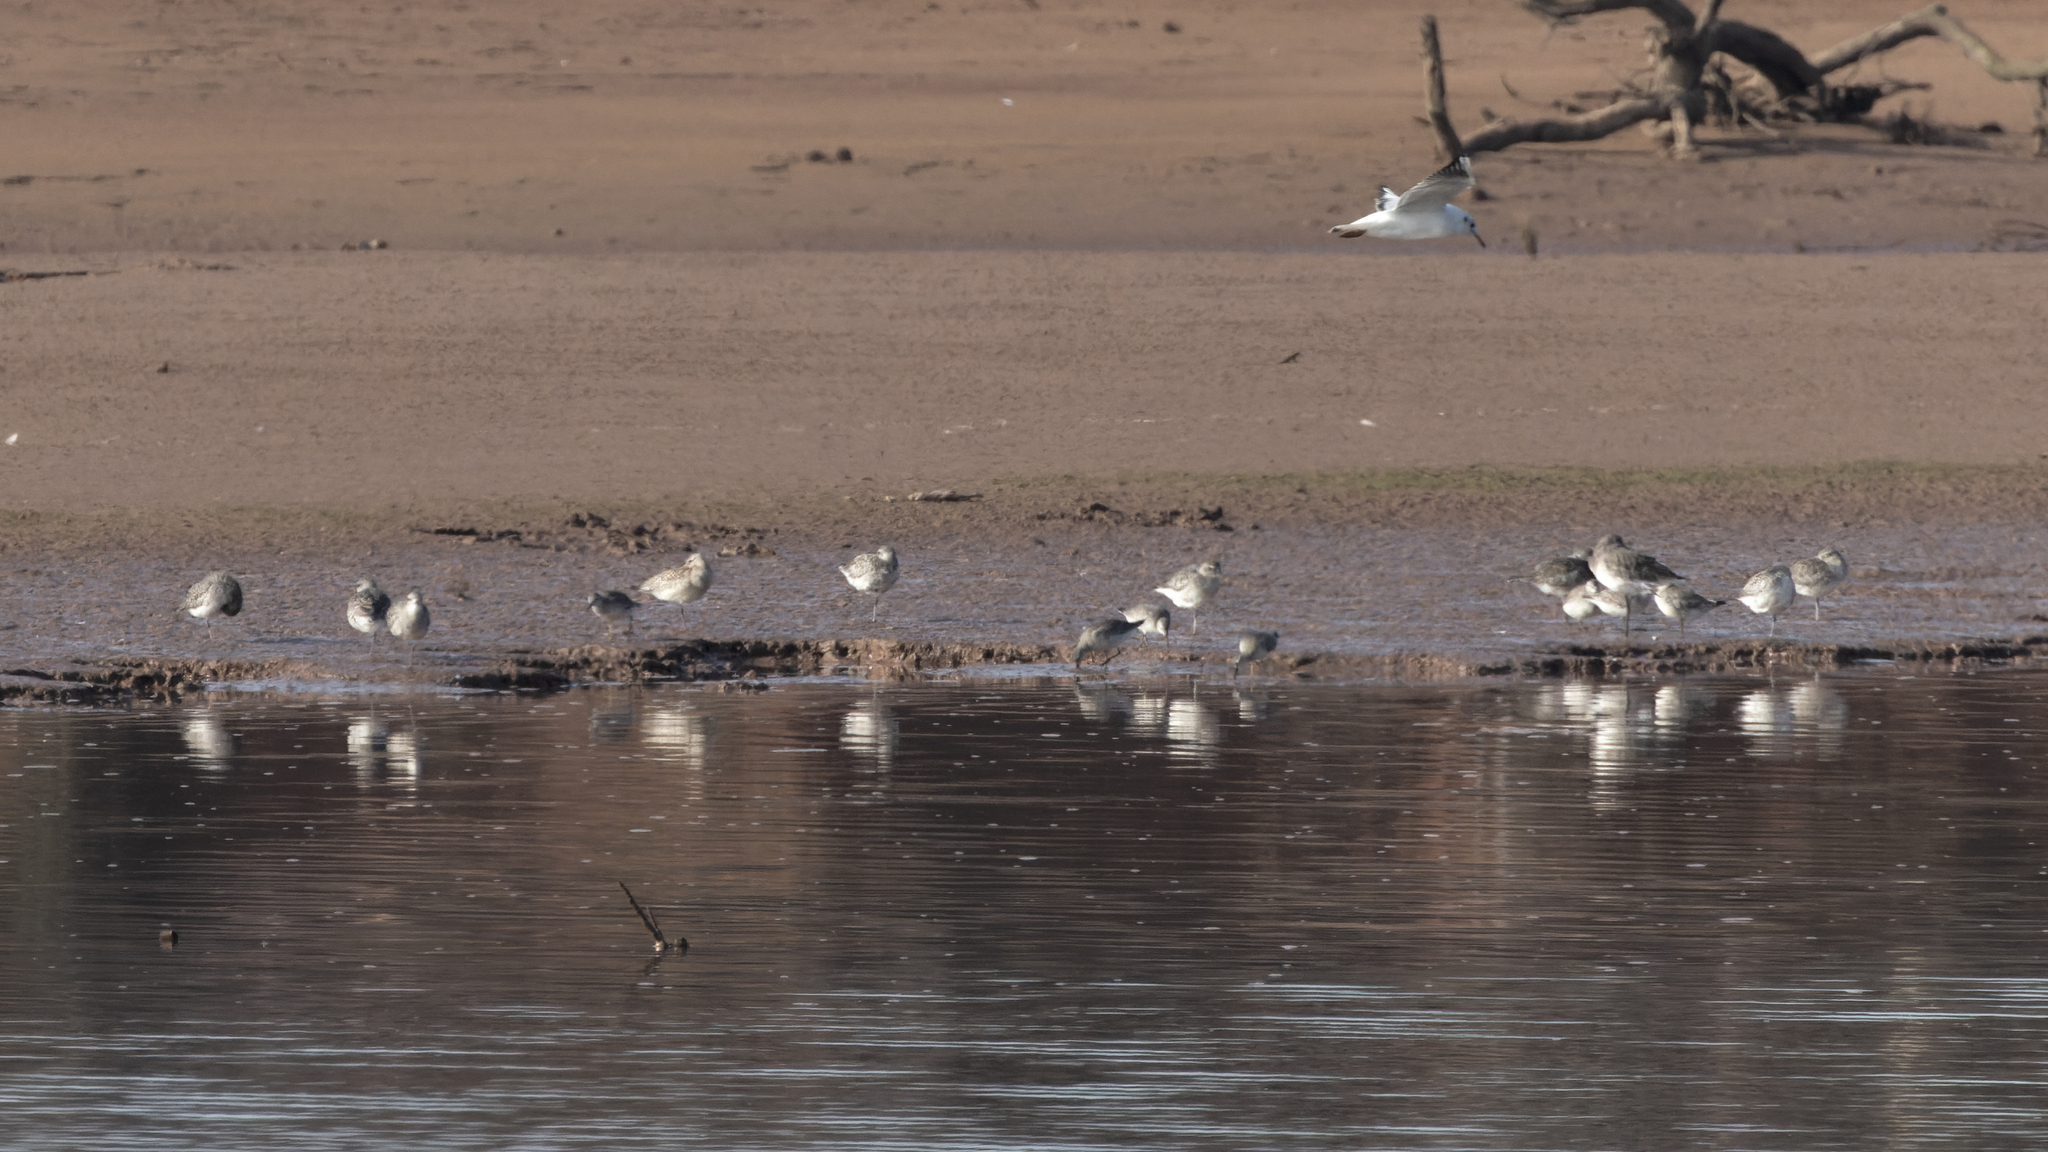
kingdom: Animalia
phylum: Chordata
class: Aves
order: Charadriiformes
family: Charadriidae
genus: Pluvialis
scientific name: Pluvialis squatarola
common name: Grey plover
